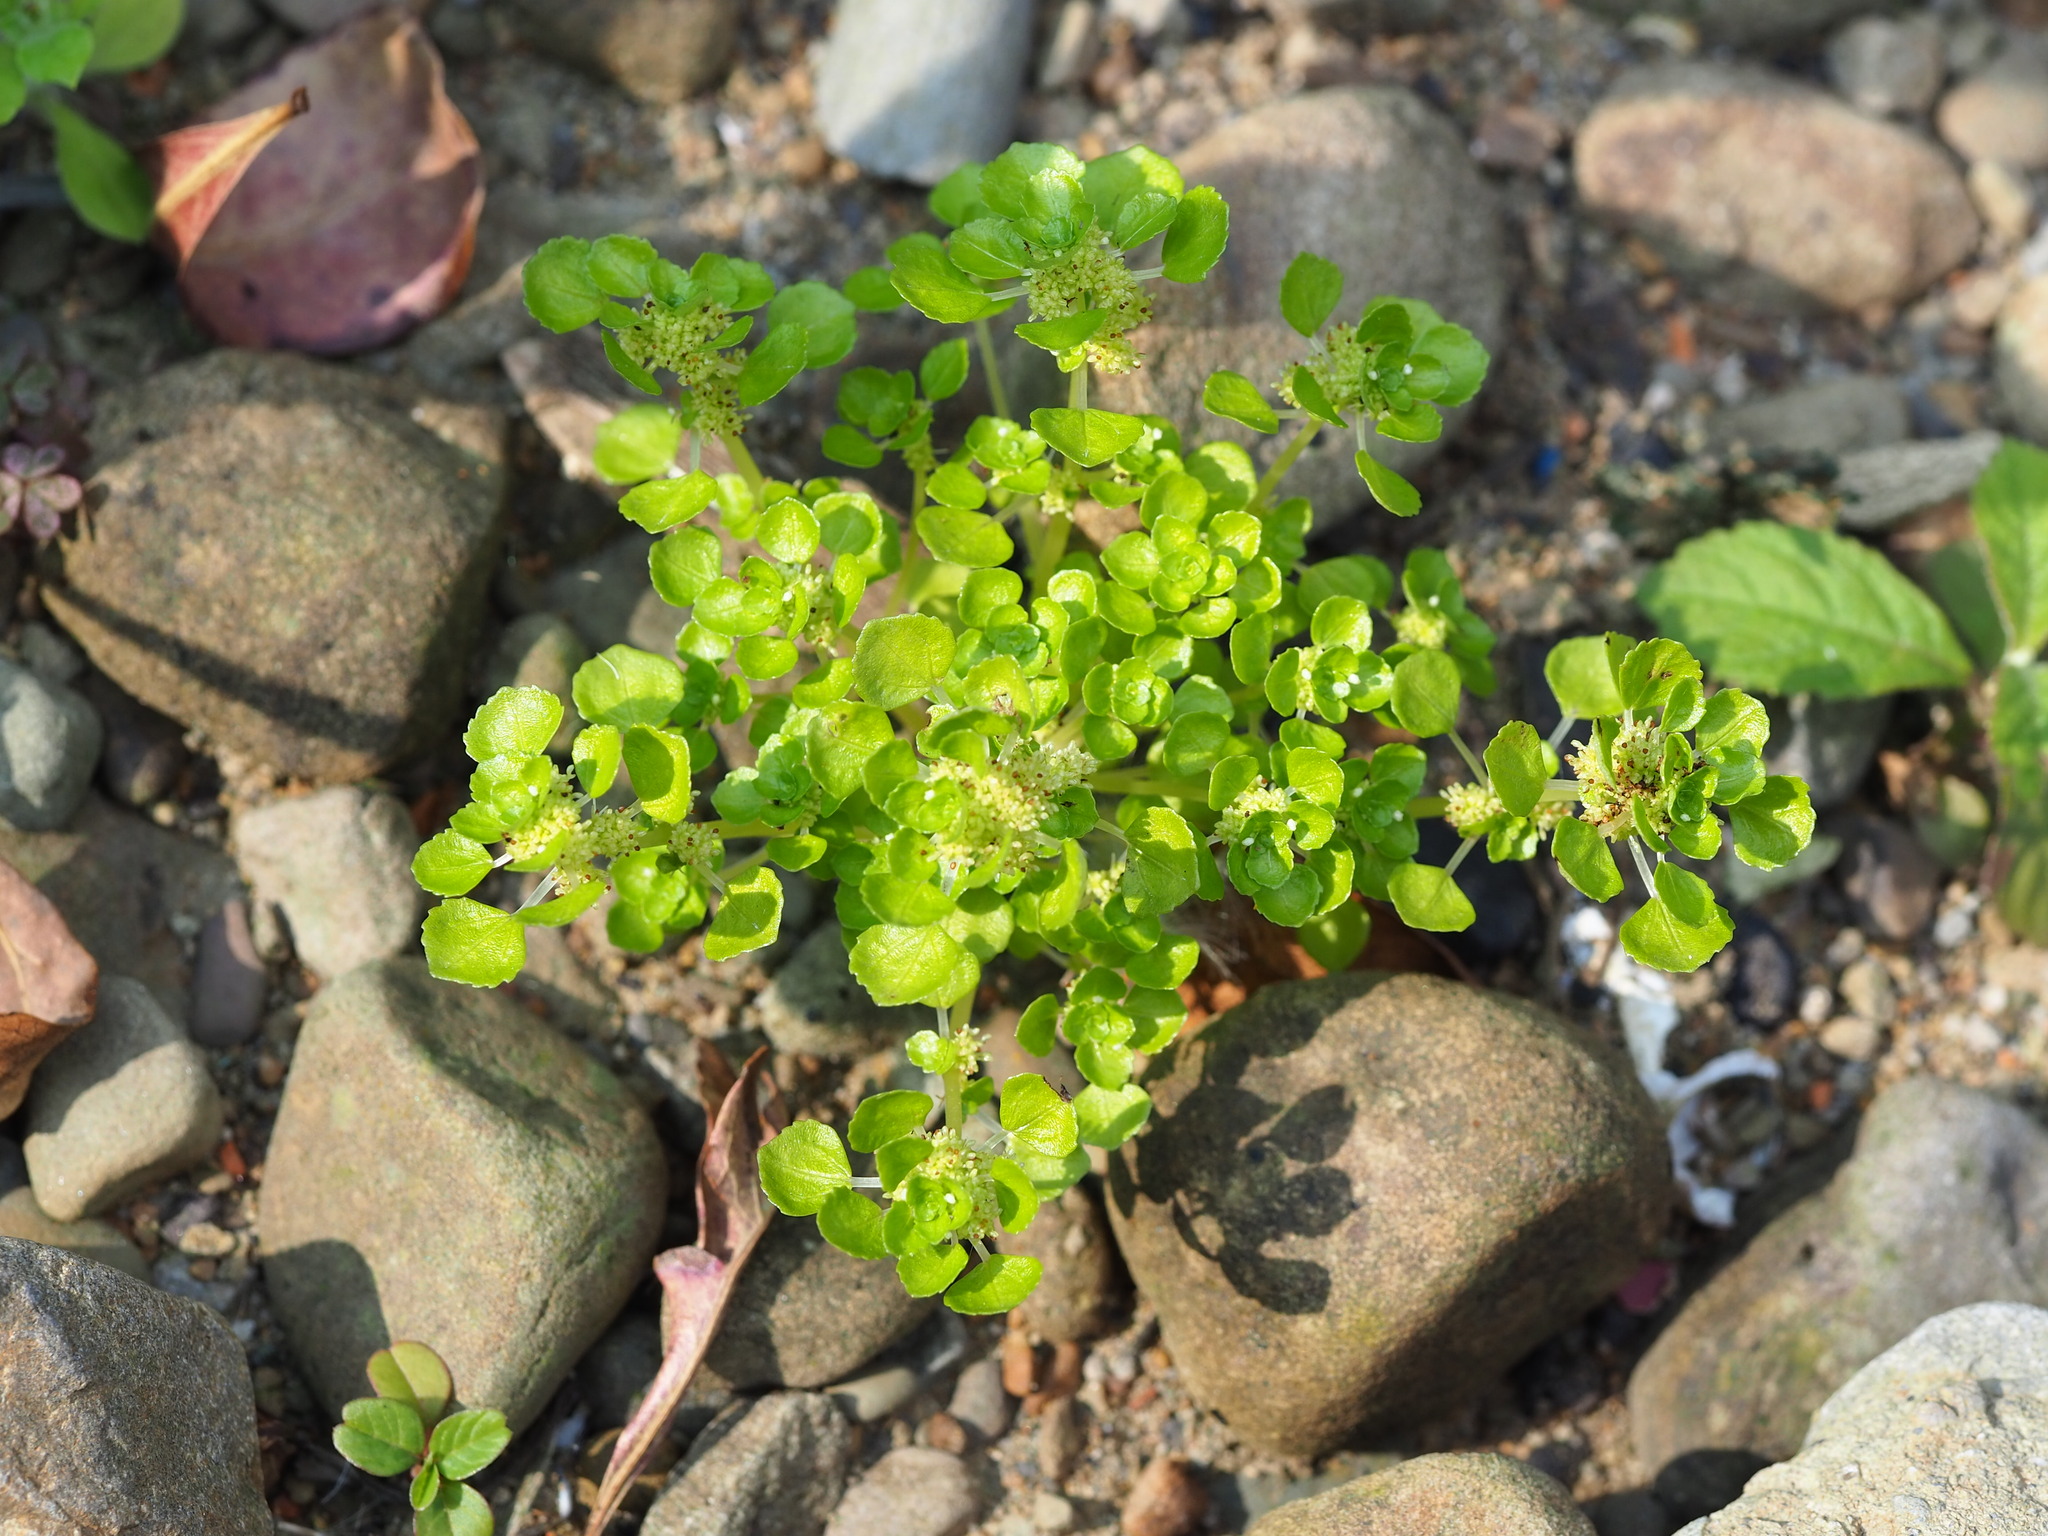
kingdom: Plantae
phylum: Tracheophyta
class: Magnoliopsida
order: Rosales
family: Urticaceae
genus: Pilea
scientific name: Pilea peploides
